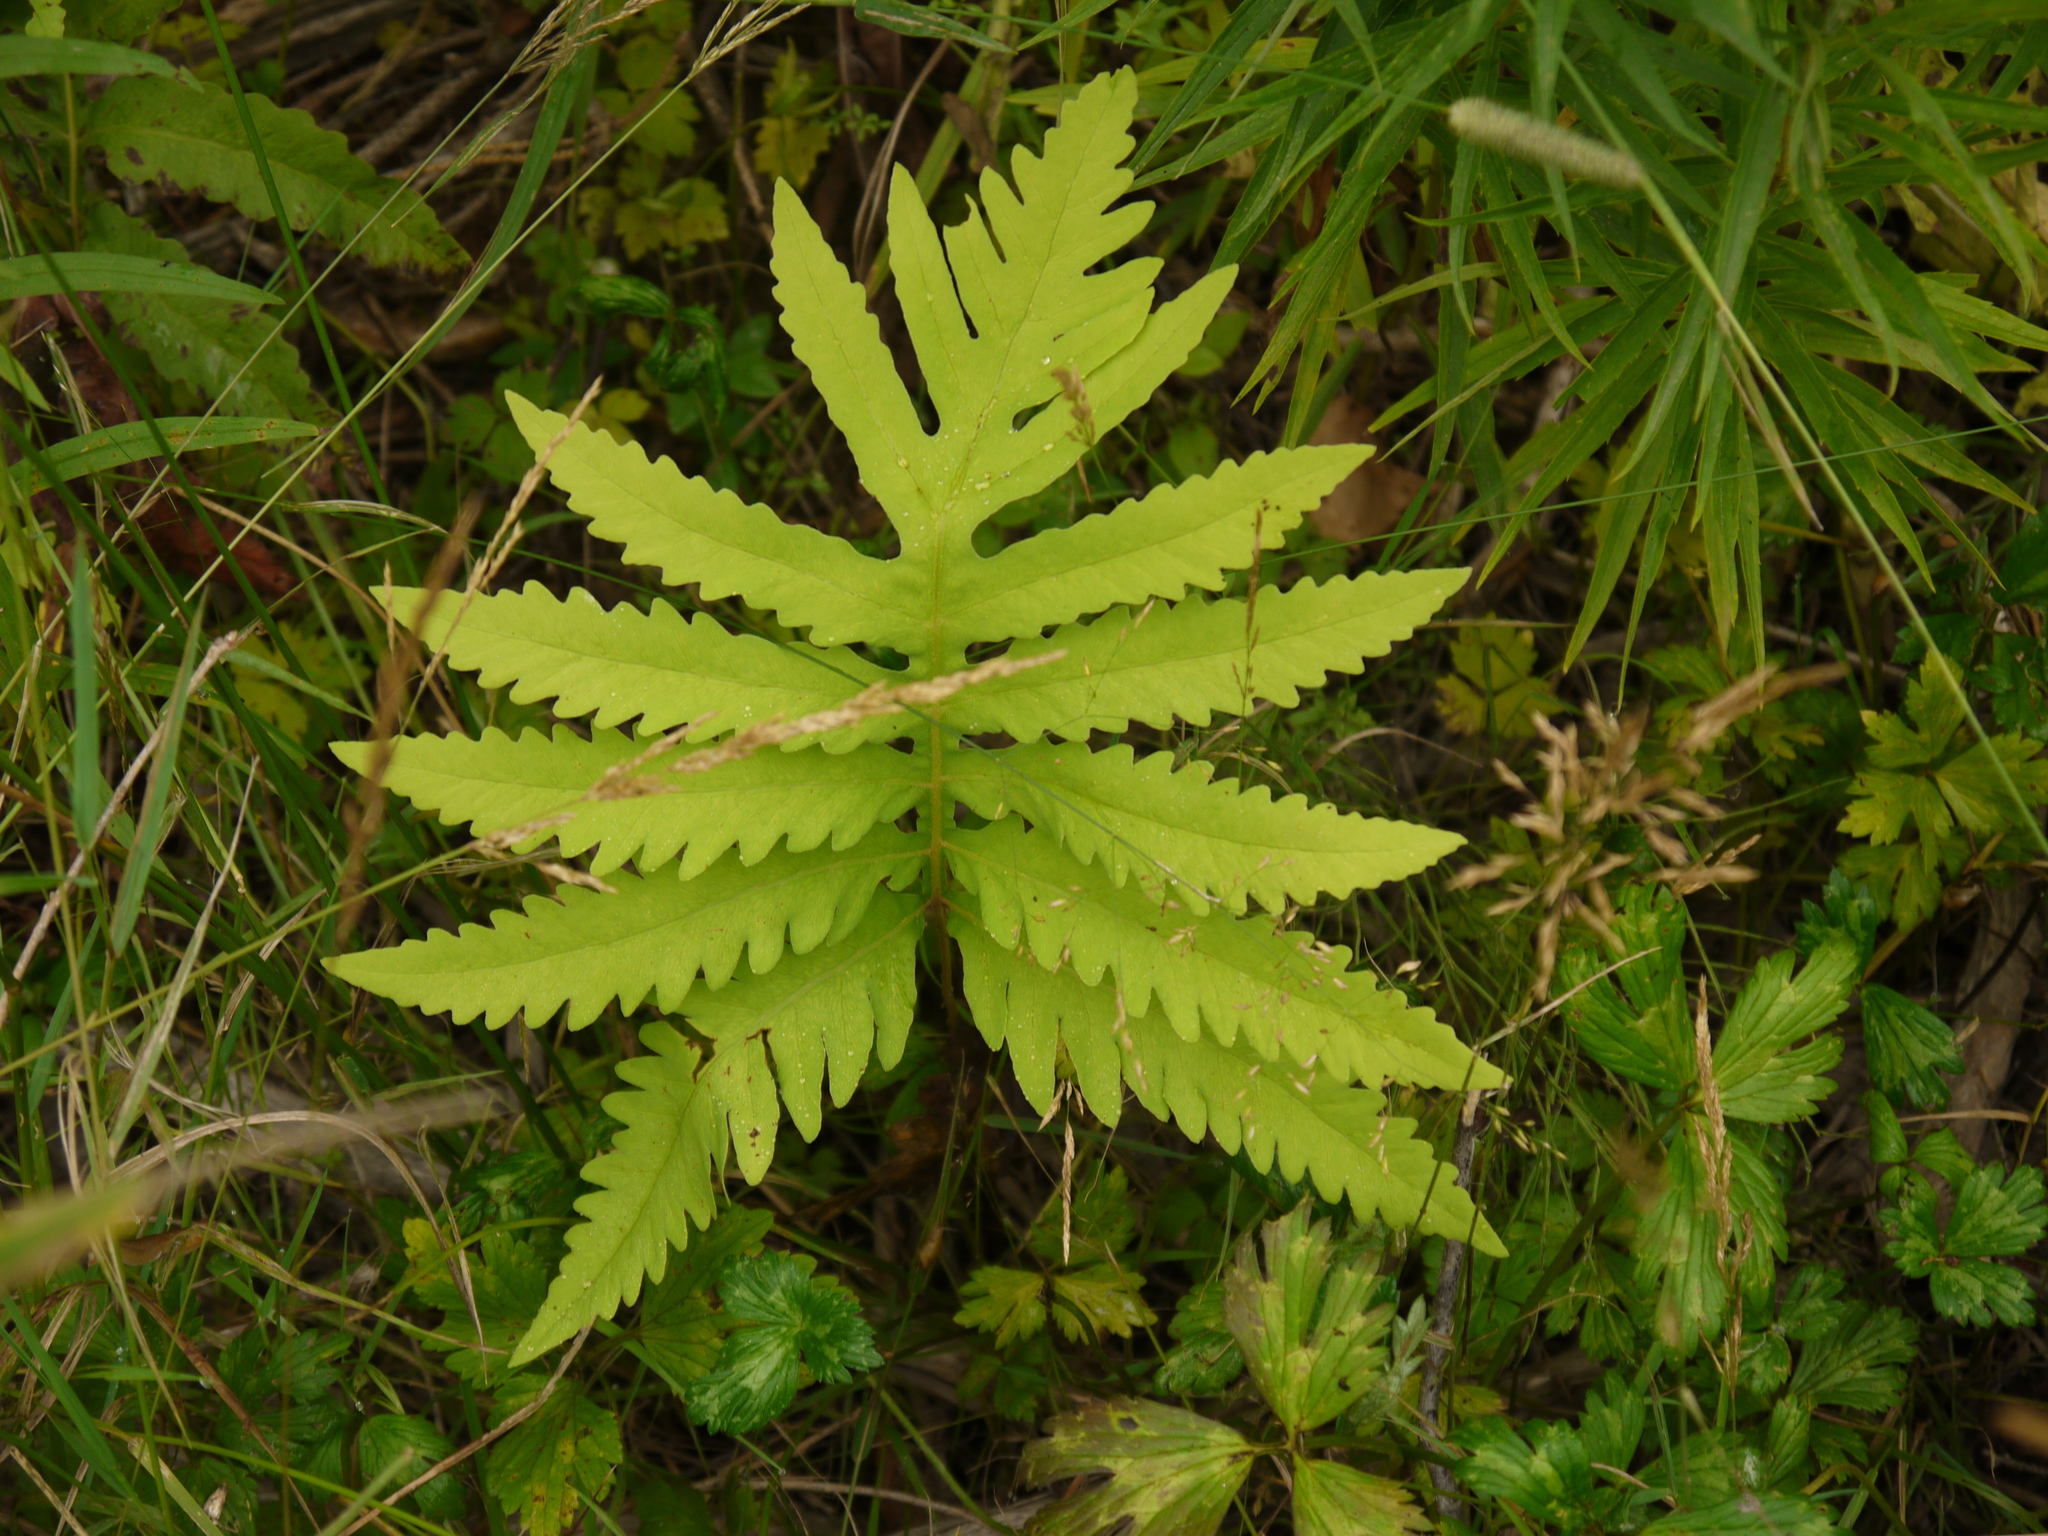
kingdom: Plantae
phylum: Tracheophyta
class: Polypodiopsida
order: Polypodiales
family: Onocleaceae
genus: Onoclea
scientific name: Onoclea sensibilis
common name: Sensitive fern
